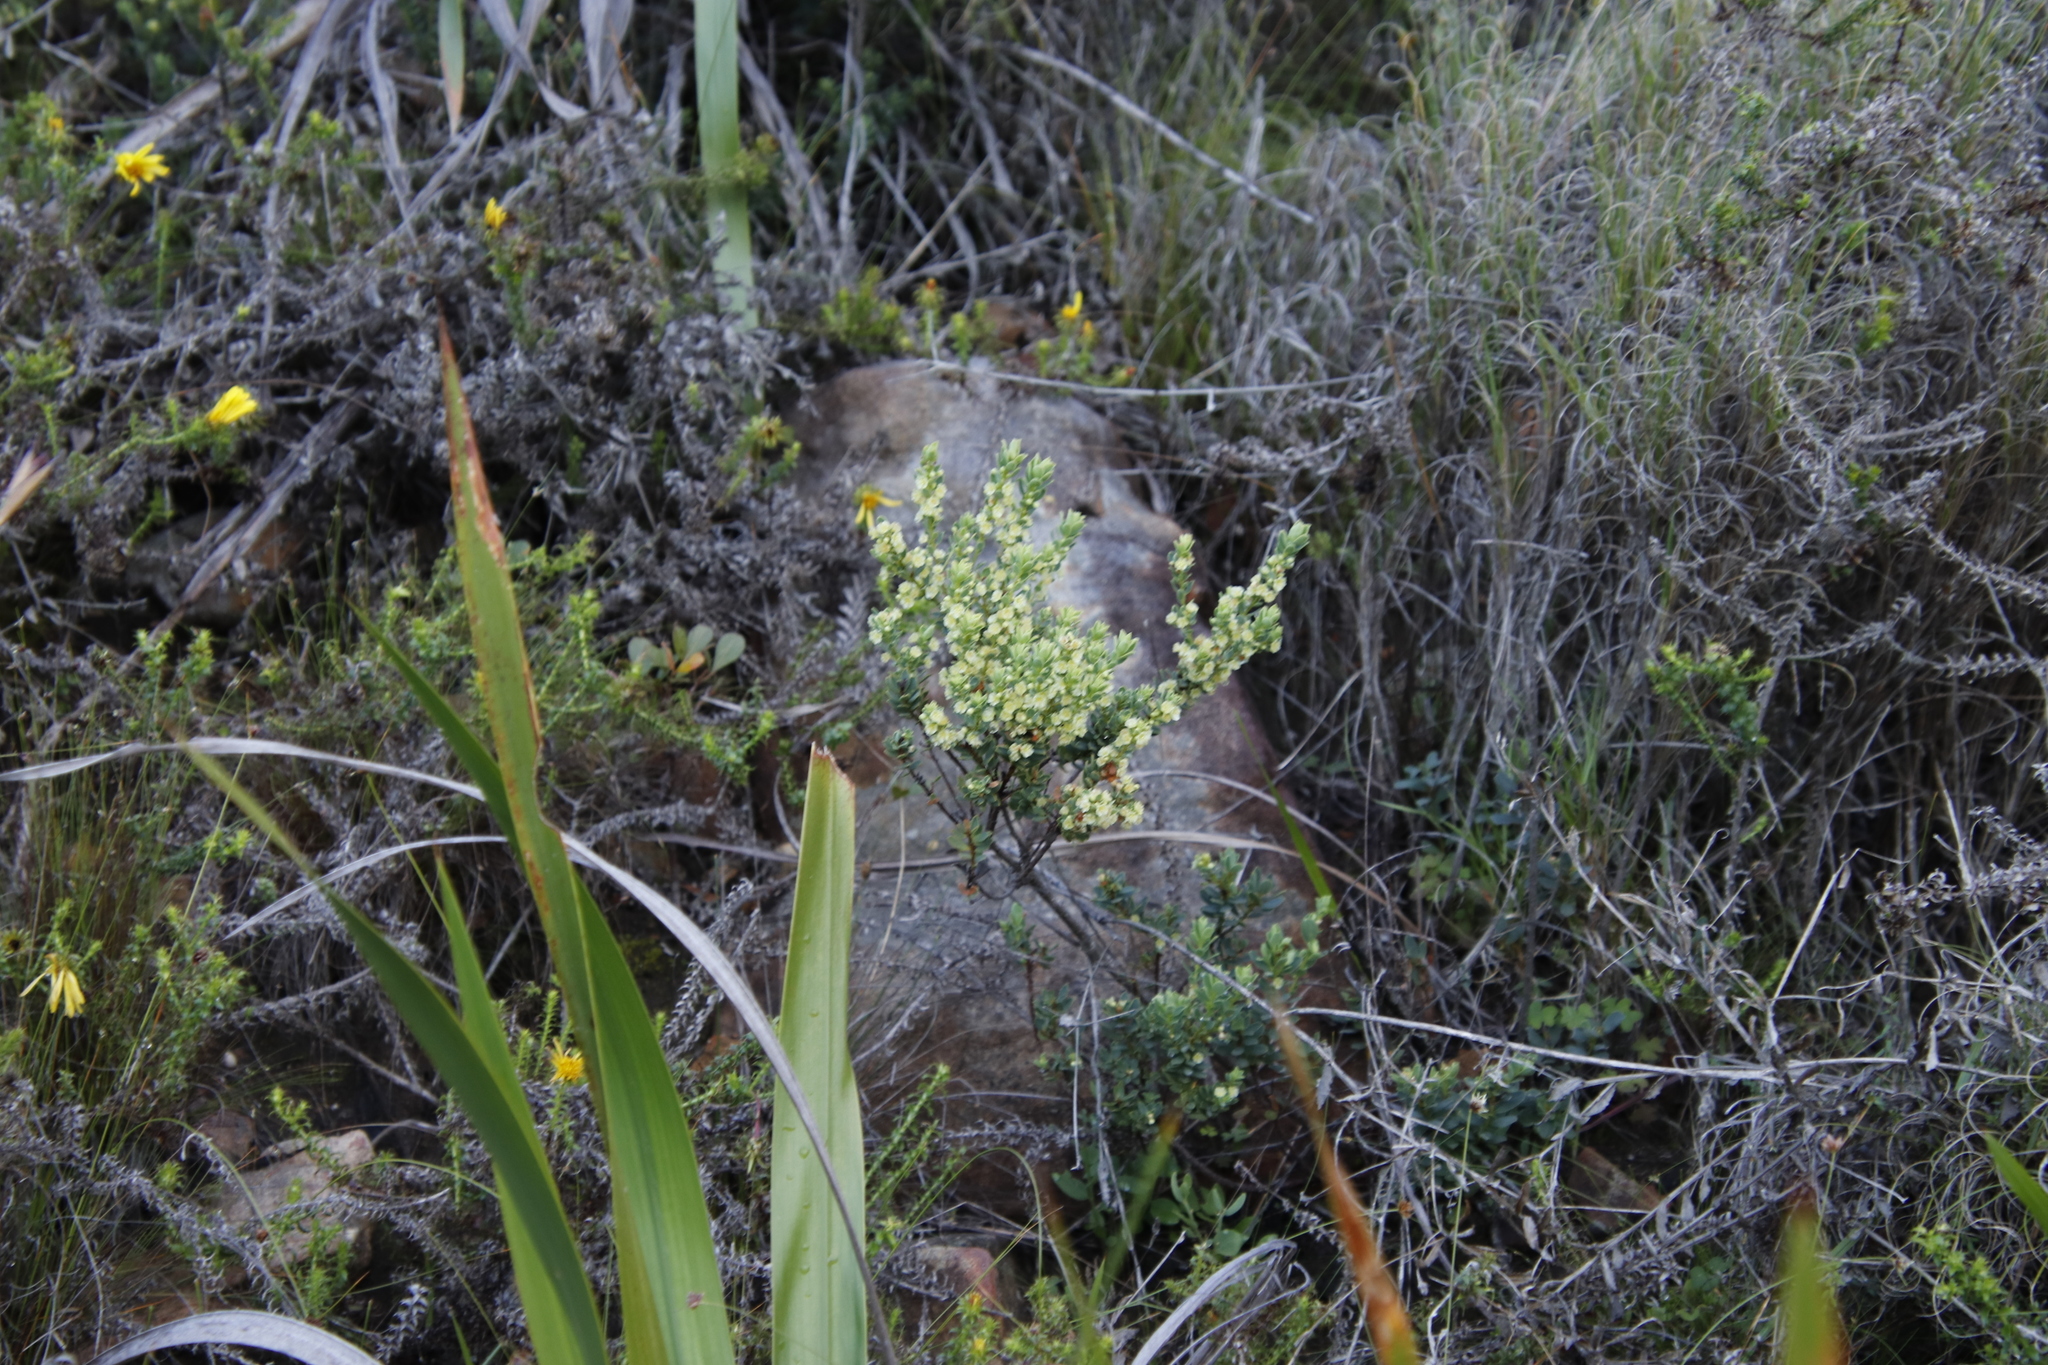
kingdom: Plantae
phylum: Tracheophyta
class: Magnoliopsida
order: Malpighiales
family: Peraceae
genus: Clutia
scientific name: Clutia alaternoides
